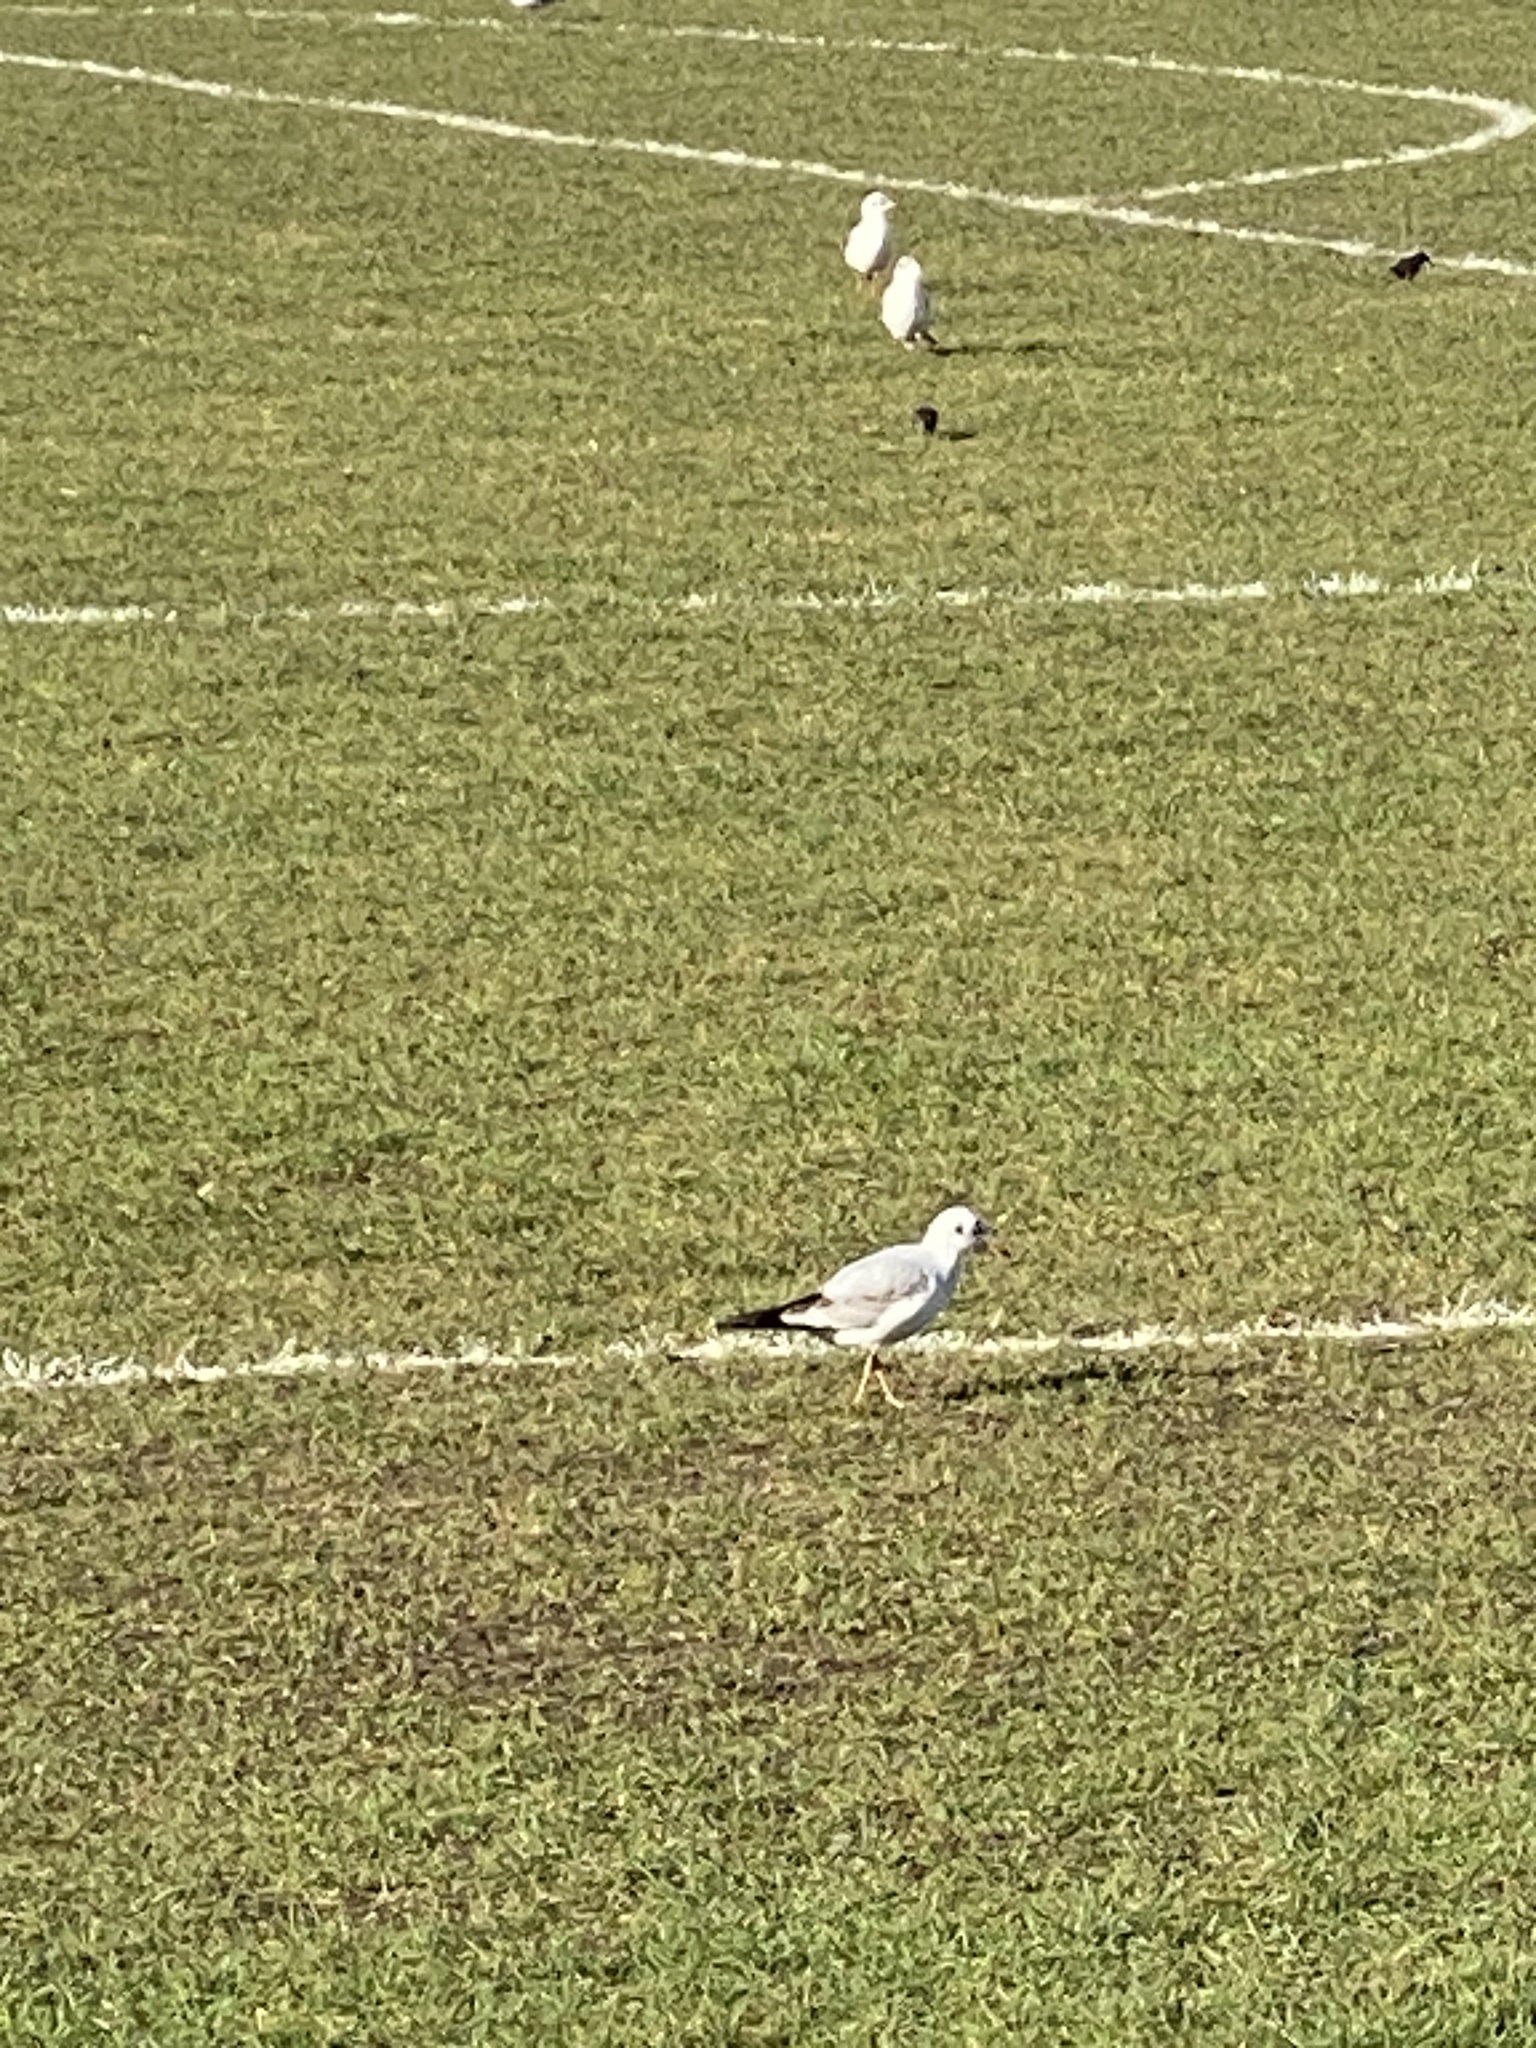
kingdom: Animalia
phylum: Chordata
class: Aves
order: Charadriiformes
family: Laridae
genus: Chroicocephalus
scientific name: Chroicocephalus ridibundus
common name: Black-headed gull
